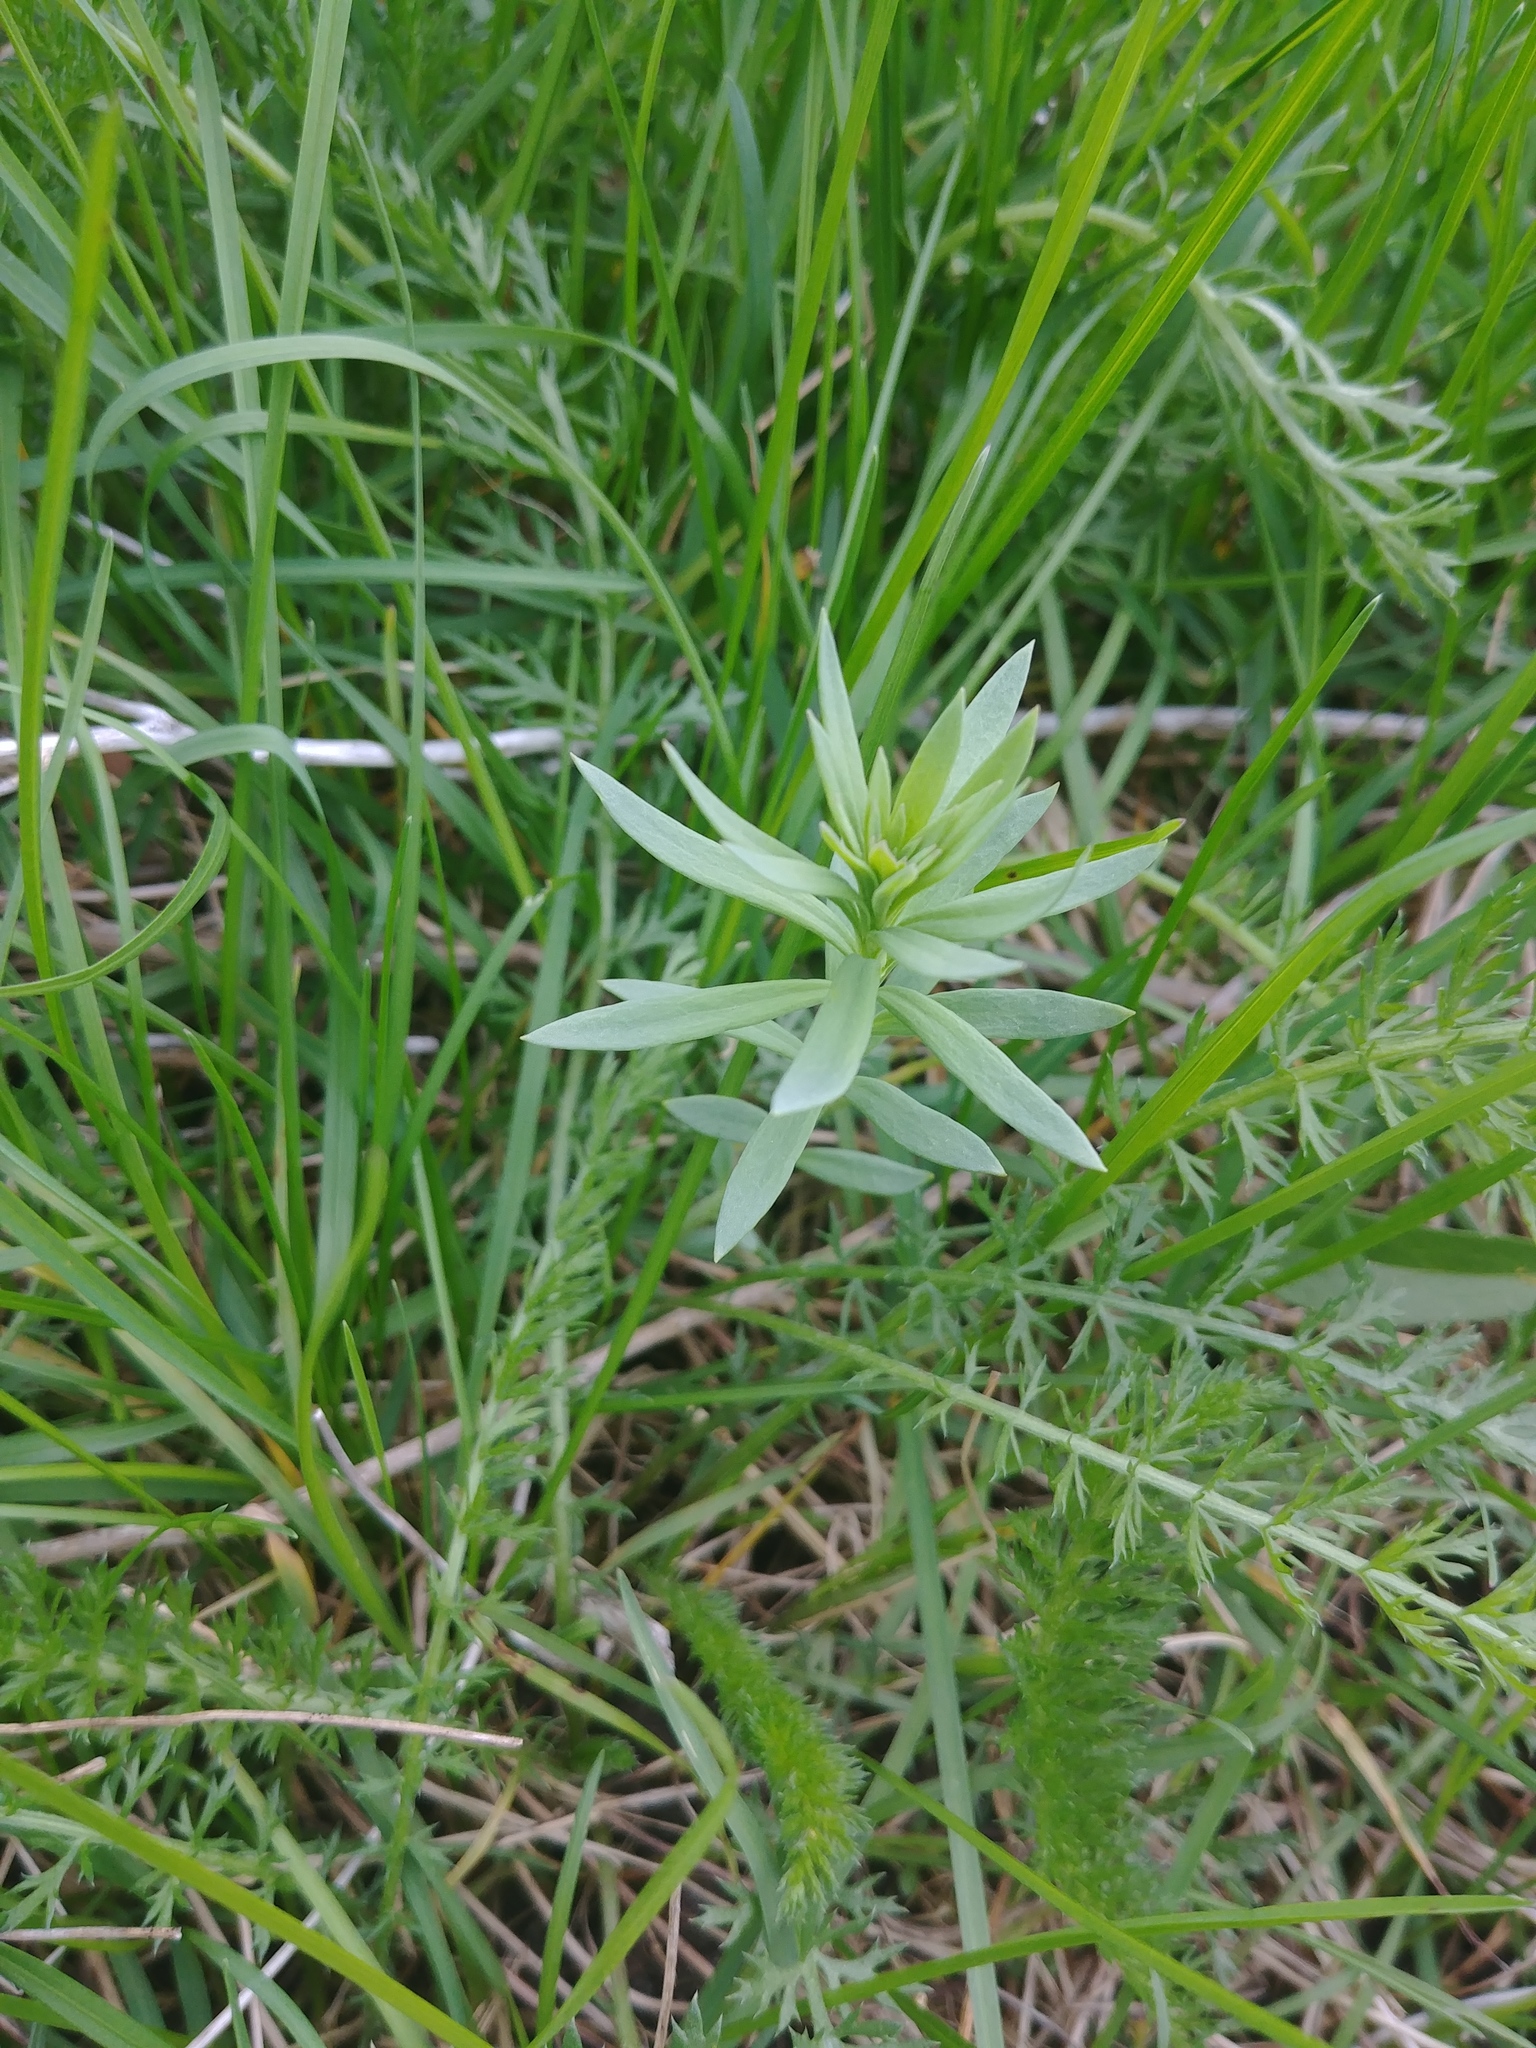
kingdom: Plantae
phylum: Tracheophyta
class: Magnoliopsida
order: Lamiales
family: Plantaginaceae
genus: Linaria
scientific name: Linaria vulgaris
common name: Butter and eggs
